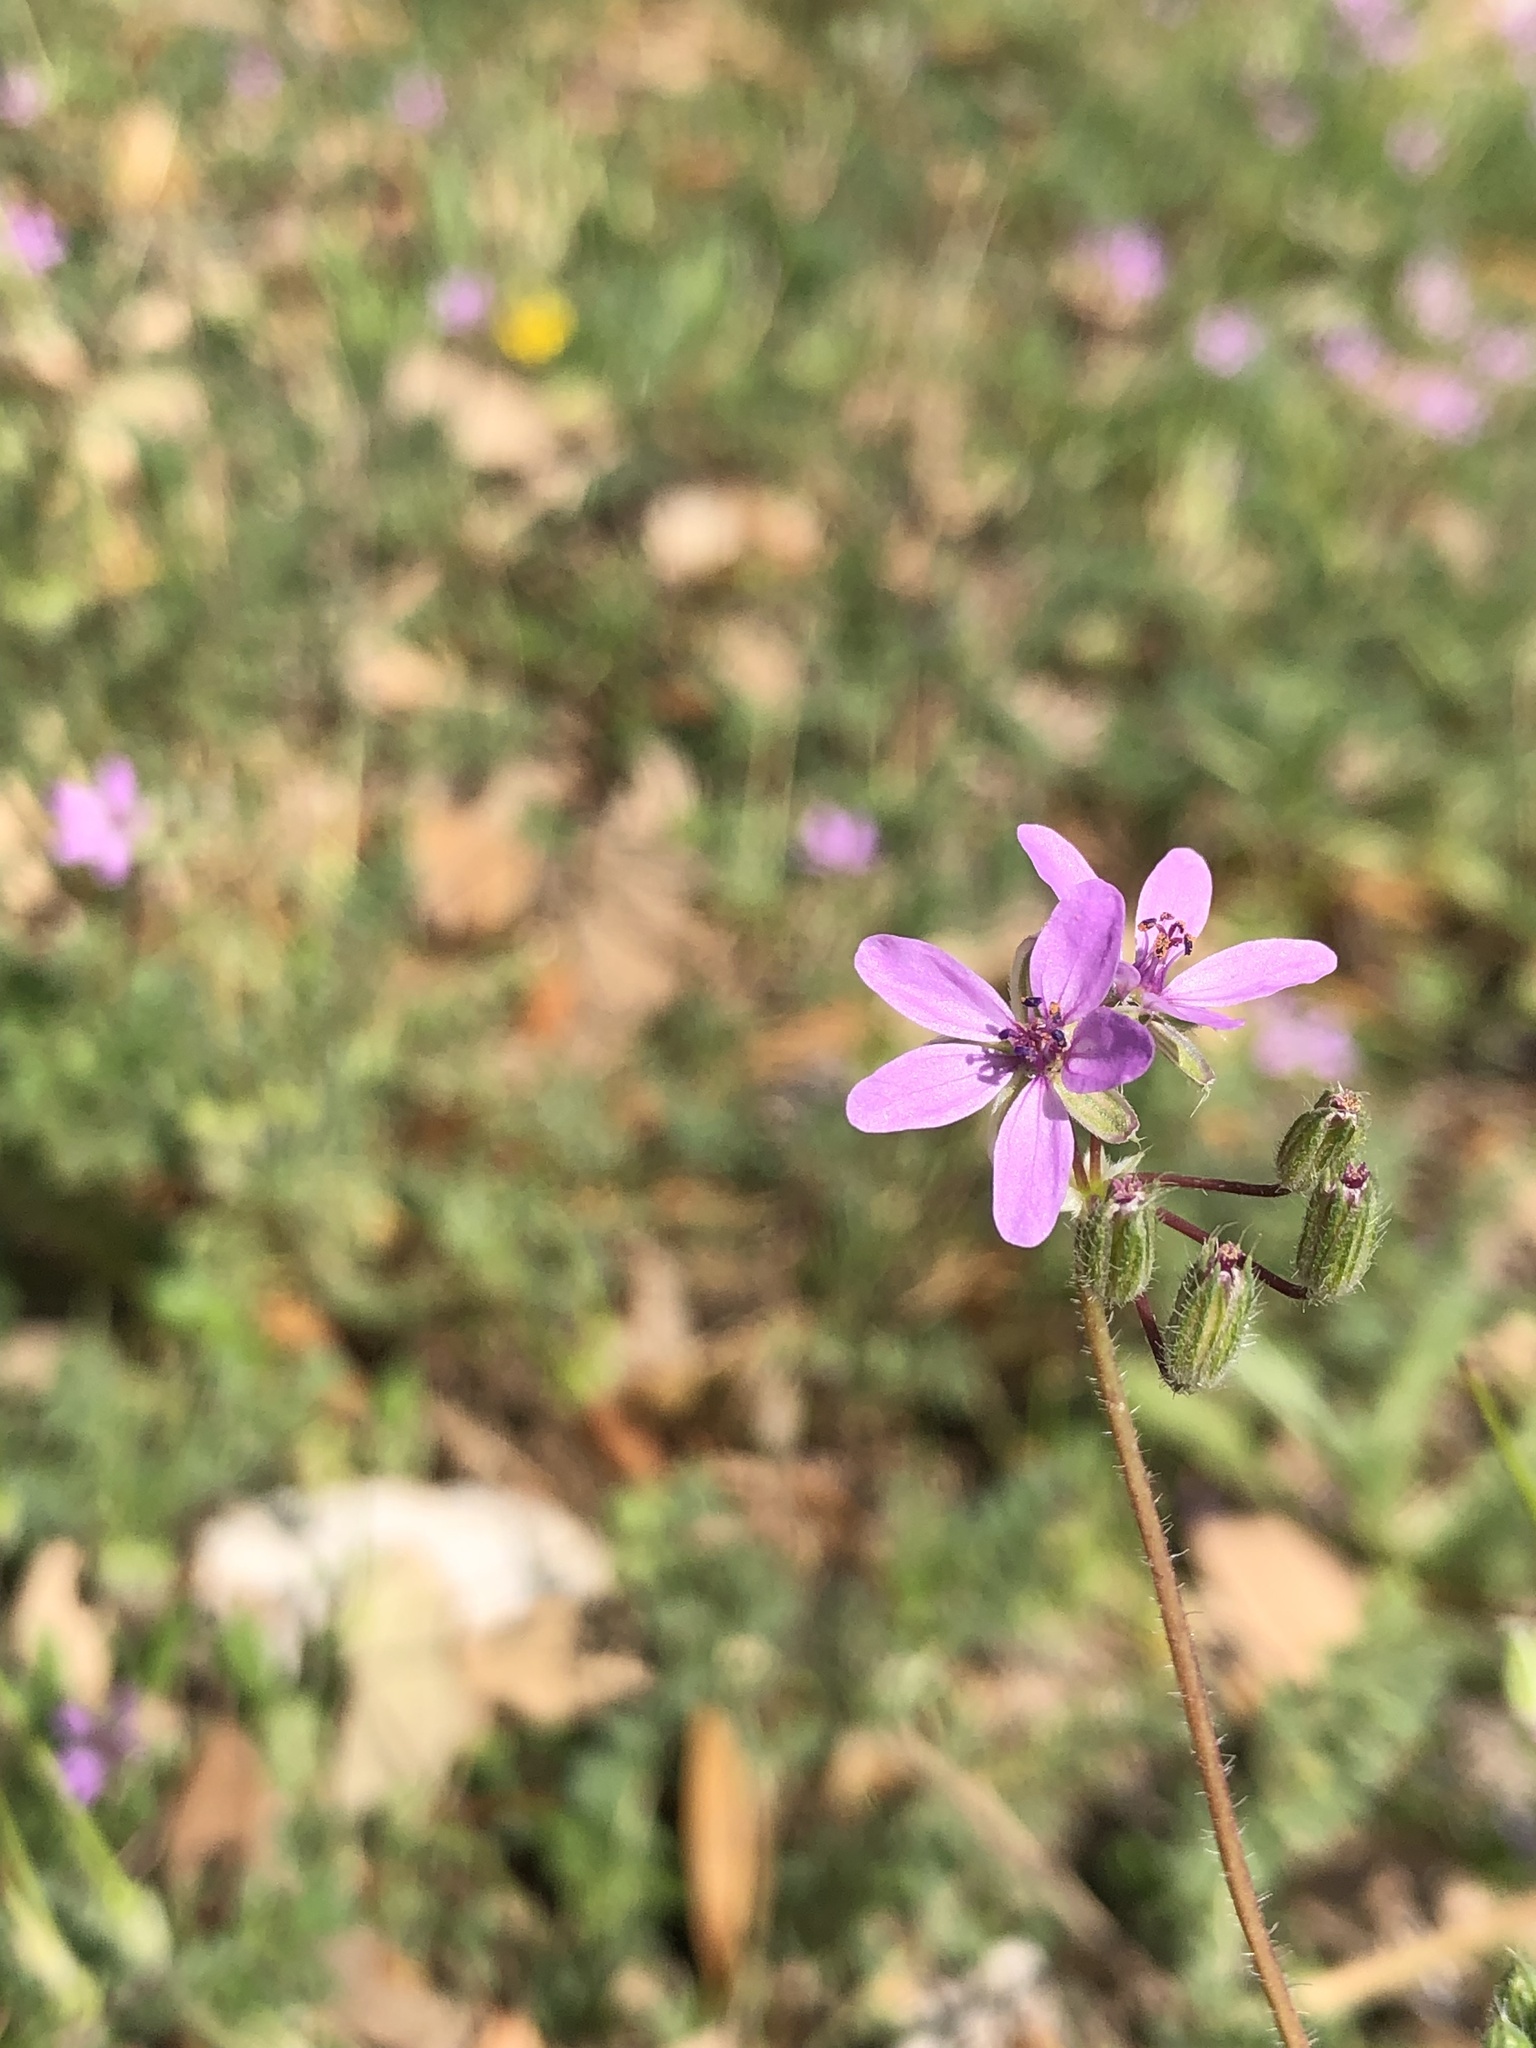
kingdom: Plantae
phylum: Tracheophyta
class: Magnoliopsida
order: Geraniales
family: Geraniaceae
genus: Erodium
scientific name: Erodium cicutarium
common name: Common stork's-bill
